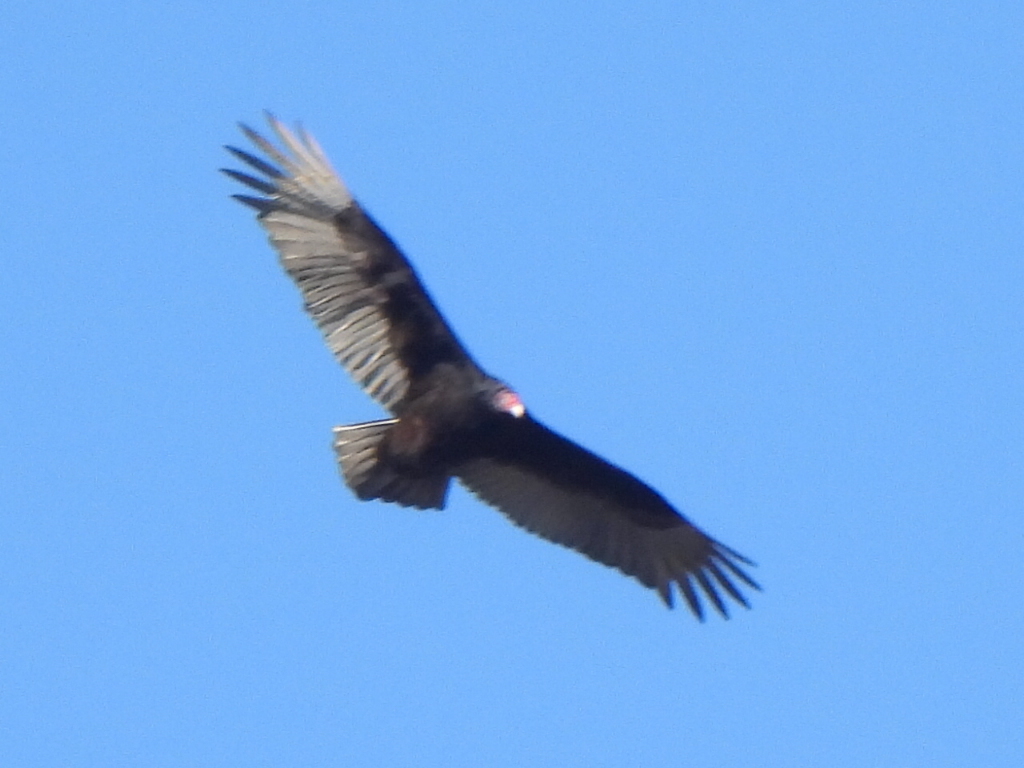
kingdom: Animalia
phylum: Chordata
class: Aves
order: Accipitriformes
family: Cathartidae
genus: Cathartes
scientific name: Cathartes aura
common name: Turkey vulture
